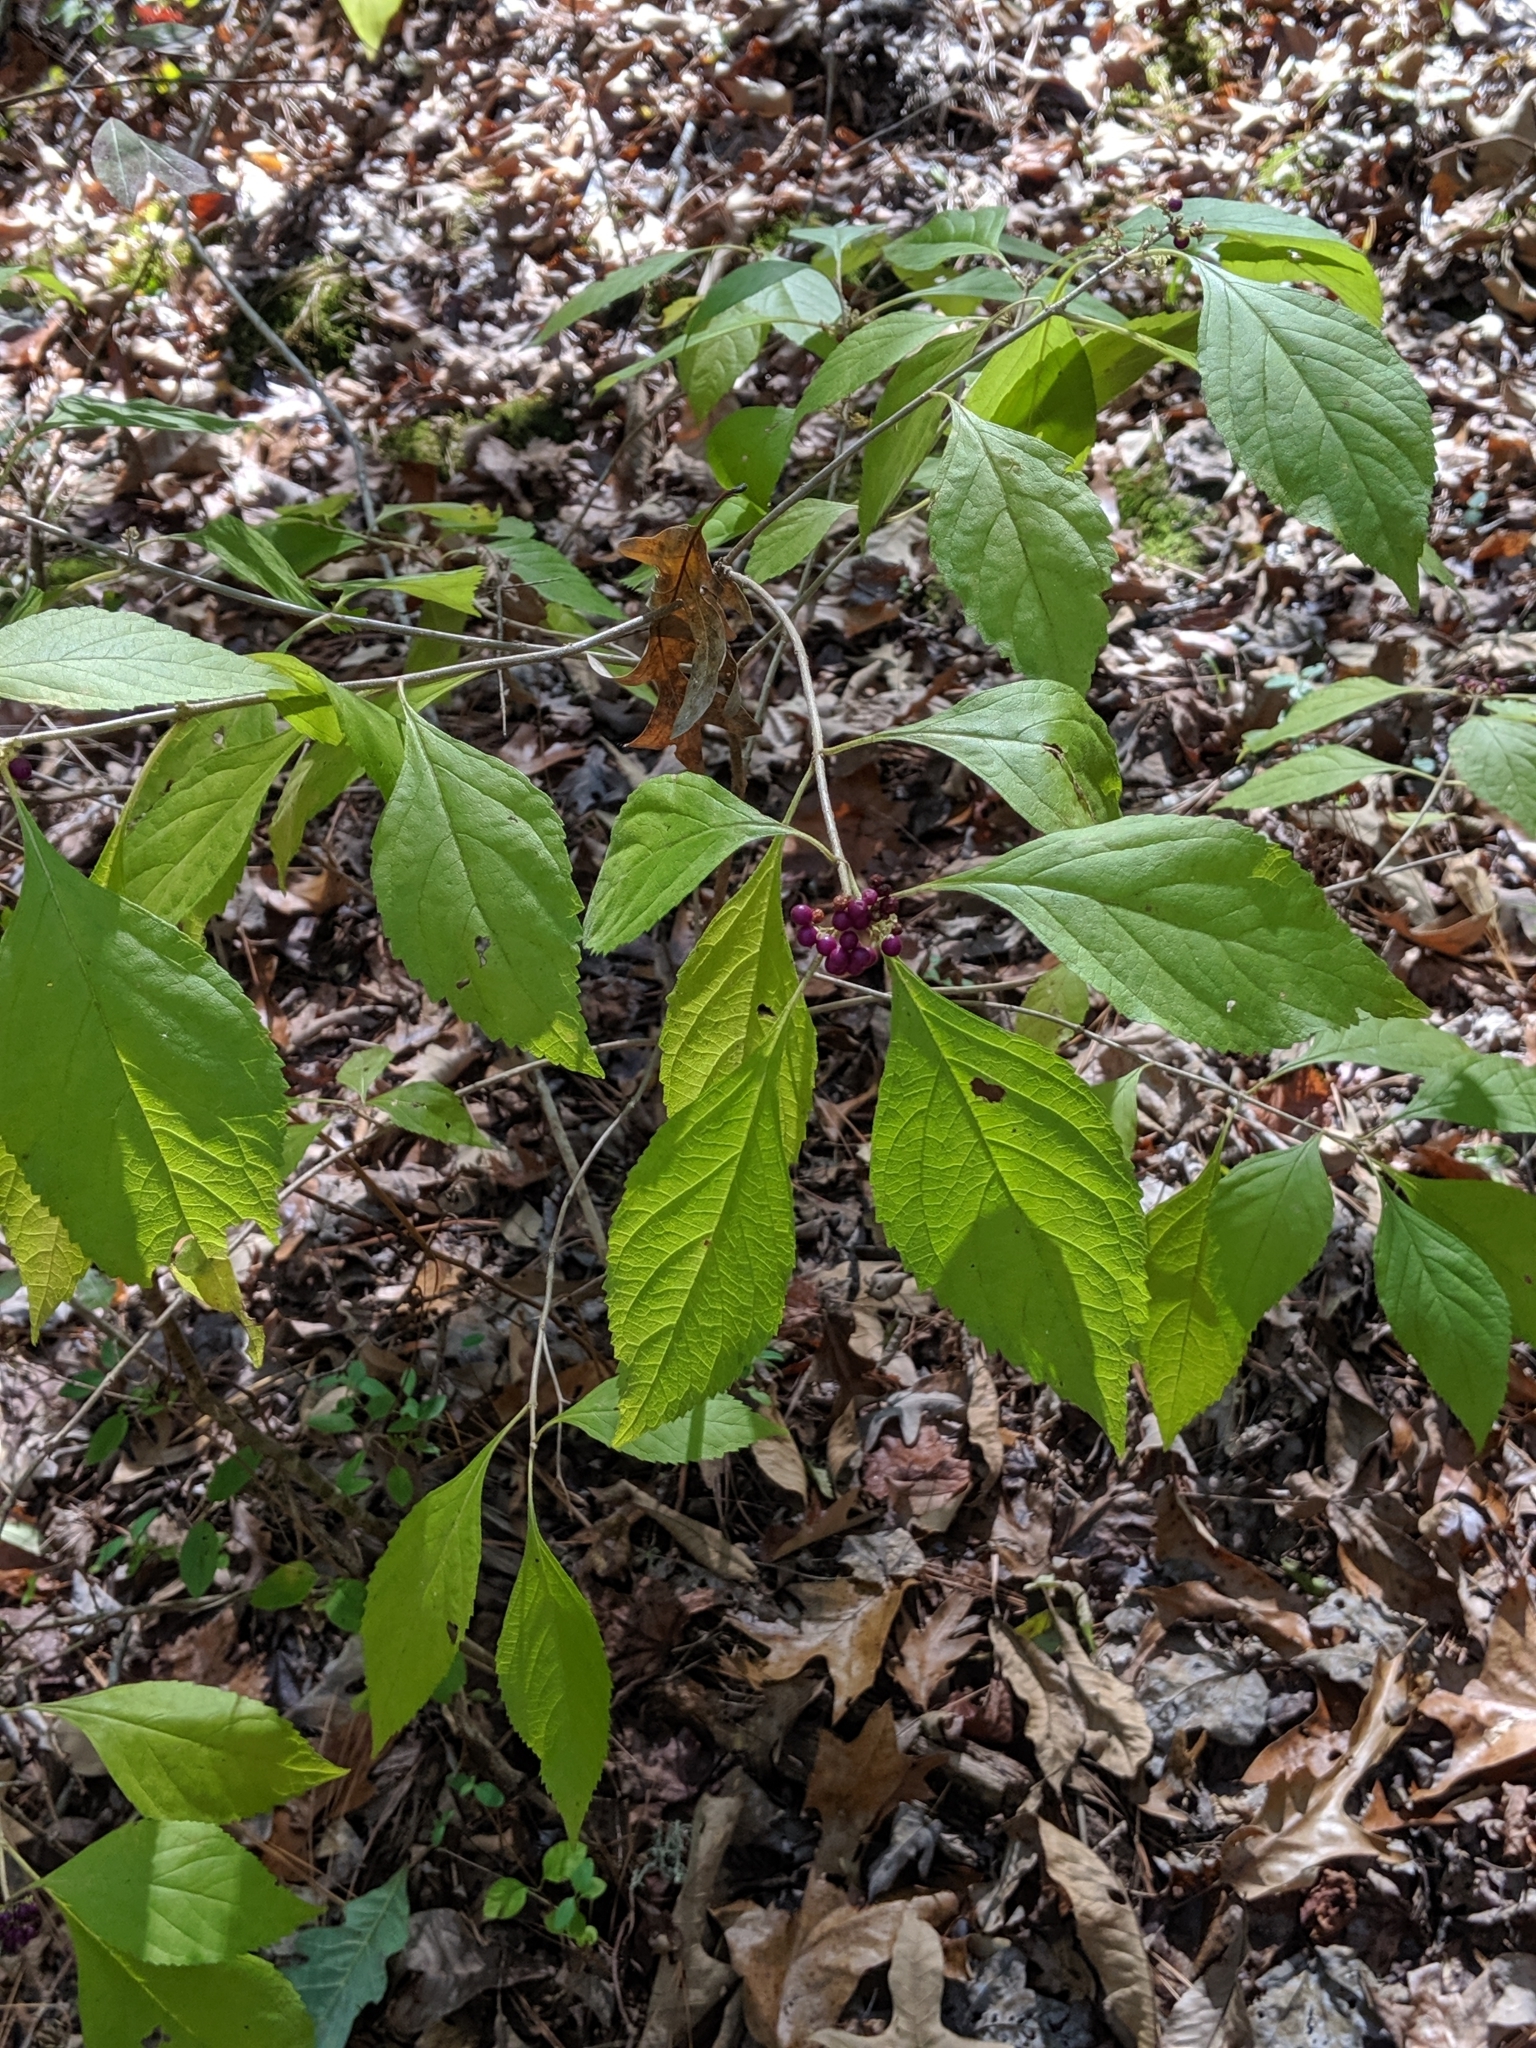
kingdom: Plantae
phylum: Tracheophyta
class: Magnoliopsida
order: Lamiales
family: Lamiaceae
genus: Callicarpa
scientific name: Callicarpa americana
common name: American beautyberry
